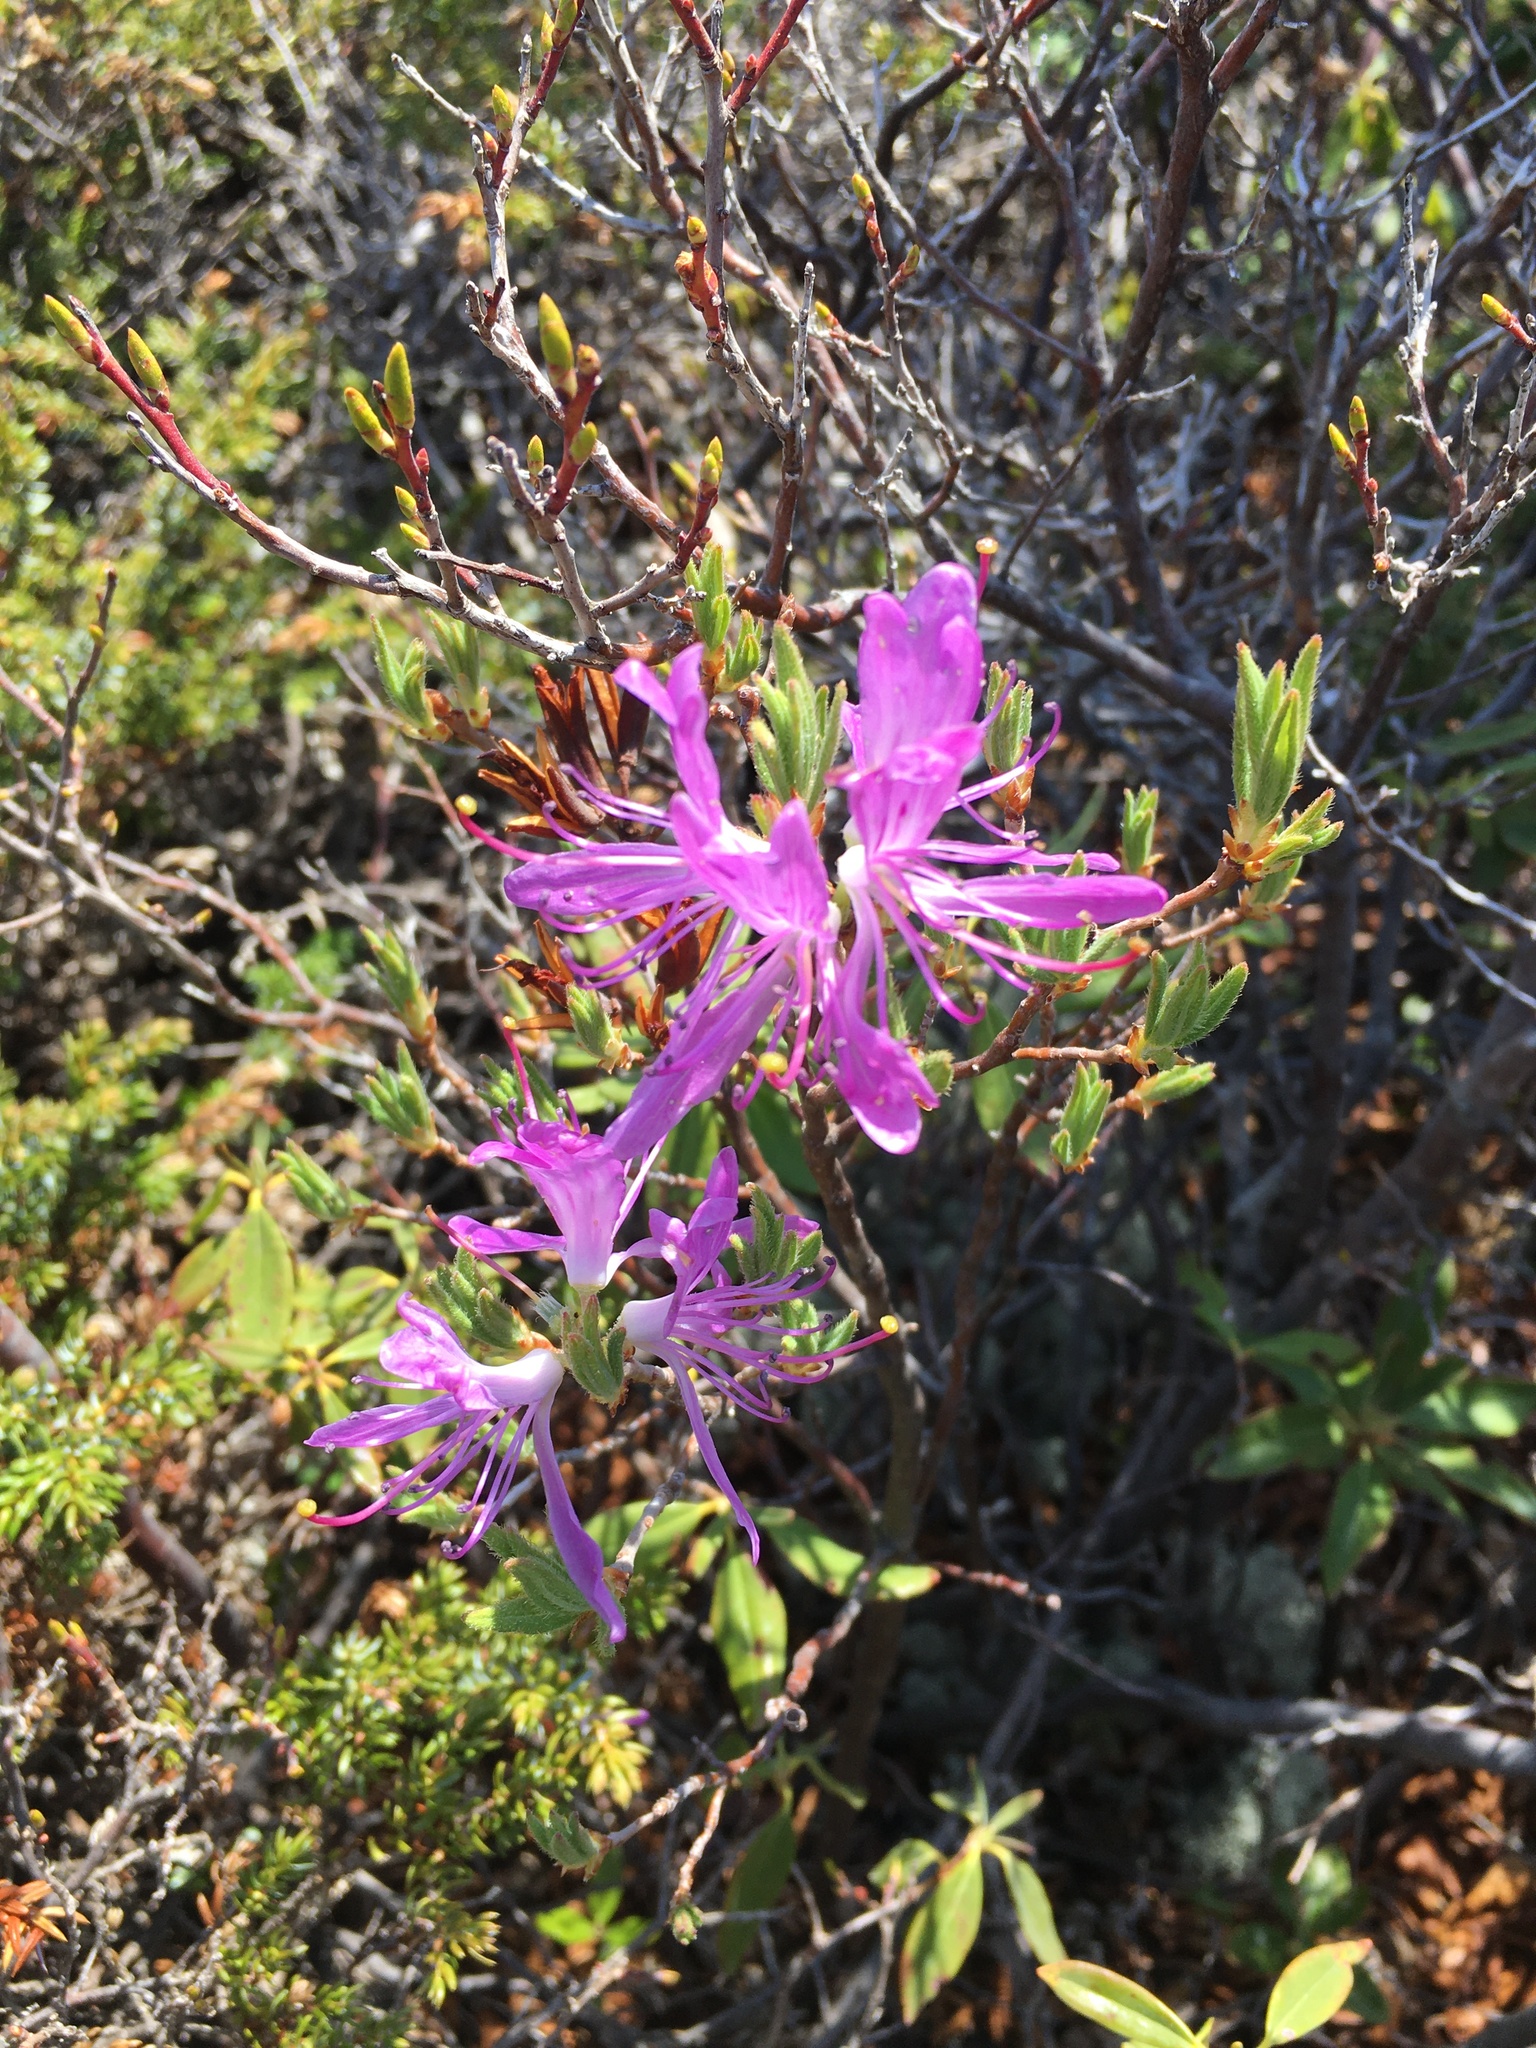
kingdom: Plantae
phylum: Tracheophyta
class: Magnoliopsida
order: Ericales
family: Ericaceae
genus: Rhododendron
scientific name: Rhododendron canadense
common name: Rhodora
